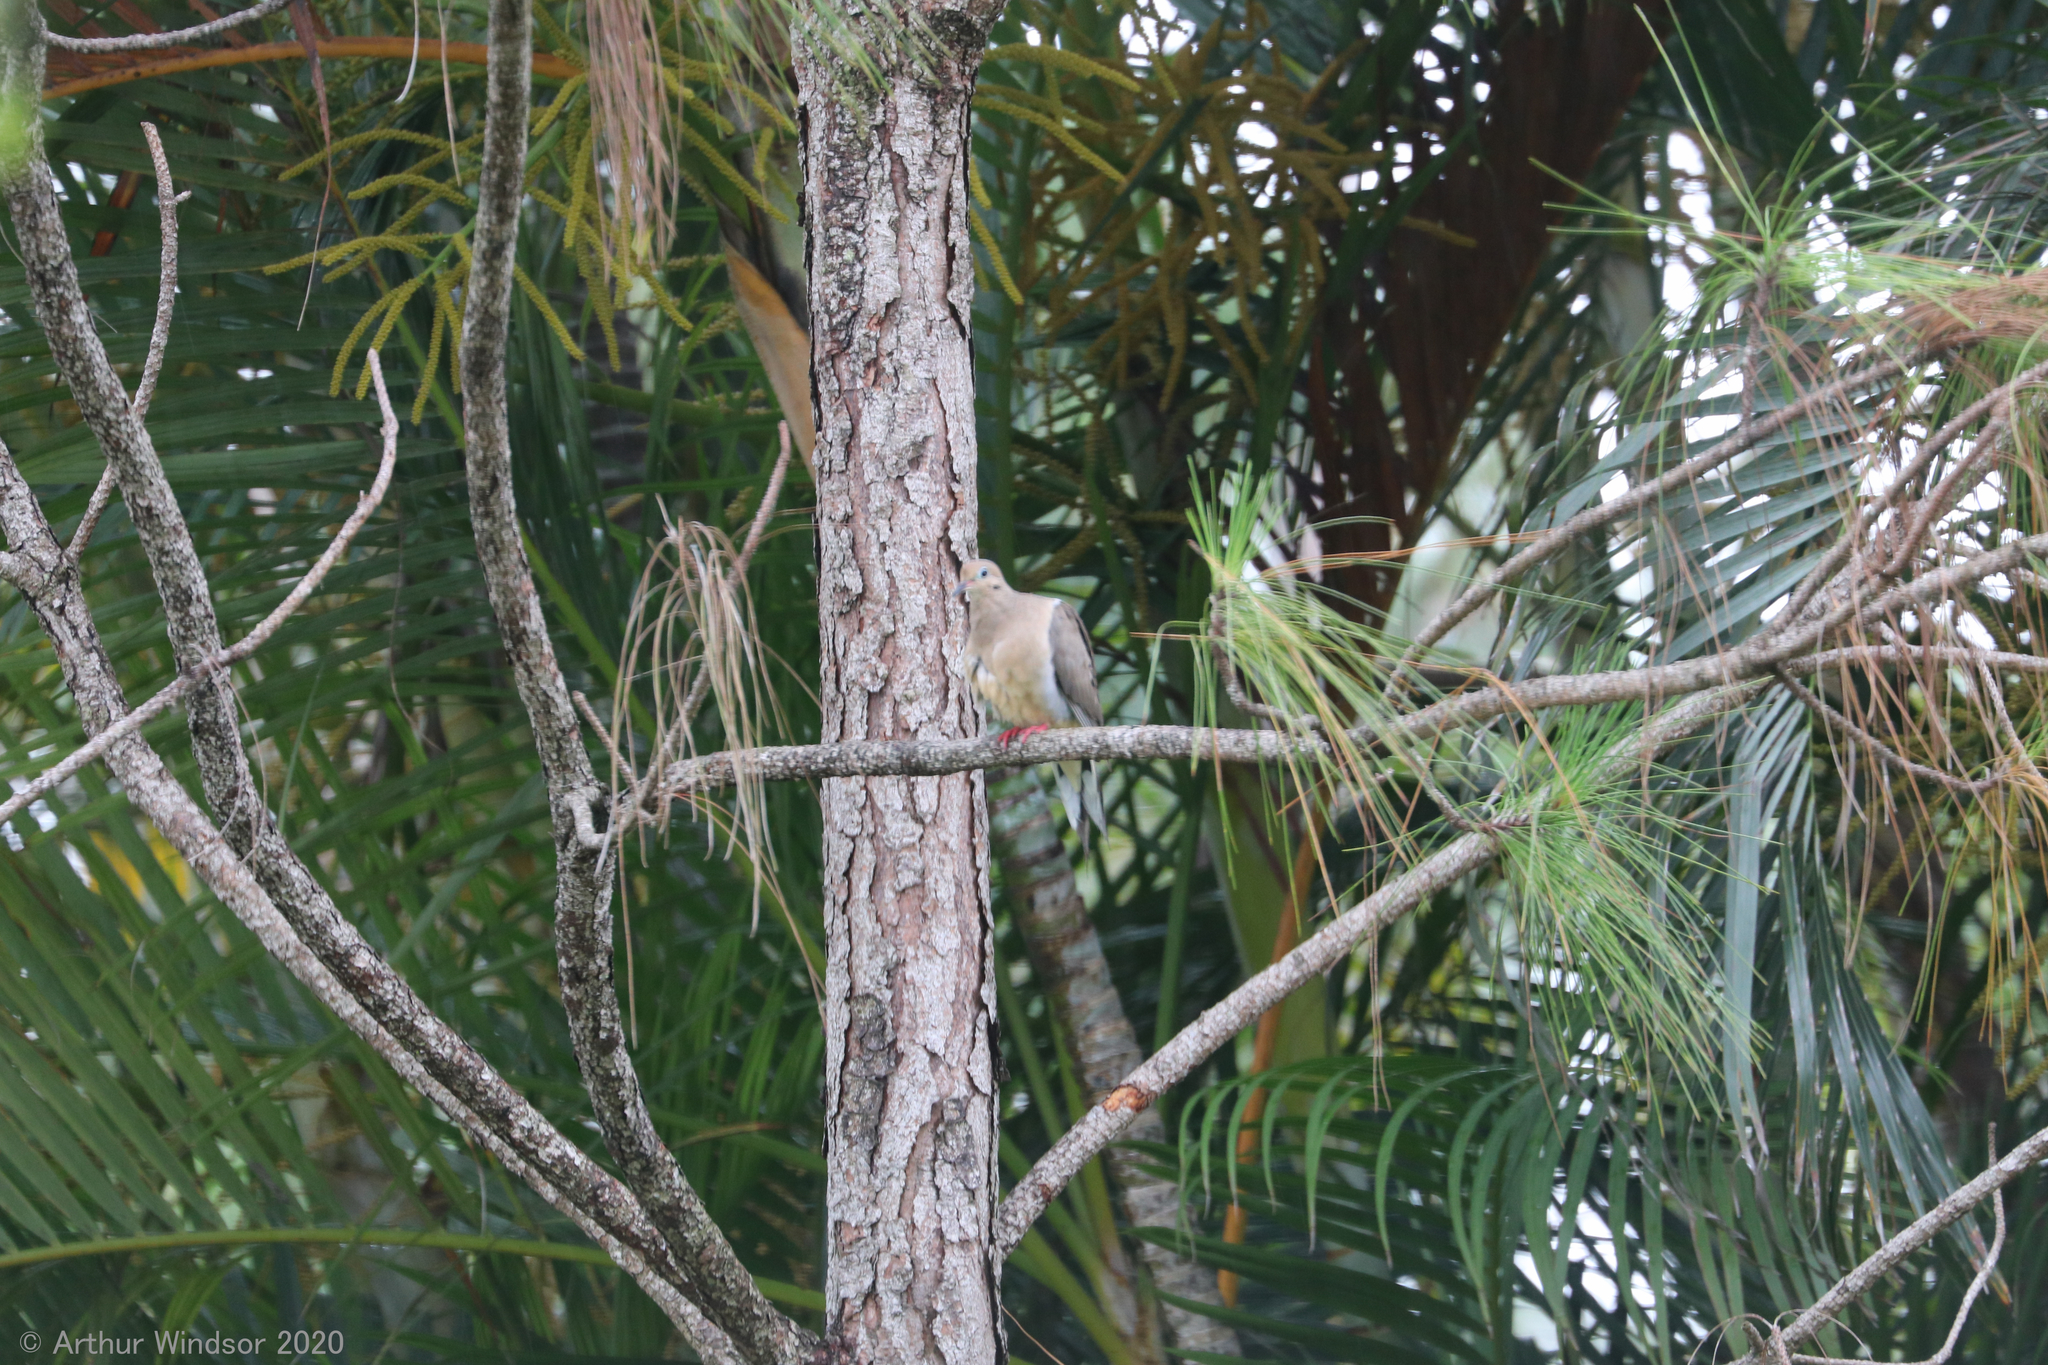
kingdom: Animalia
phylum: Chordata
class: Aves
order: Columbiformes
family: Columbidae
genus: Zenaida
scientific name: Zenaida macroura
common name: Mourning dove
